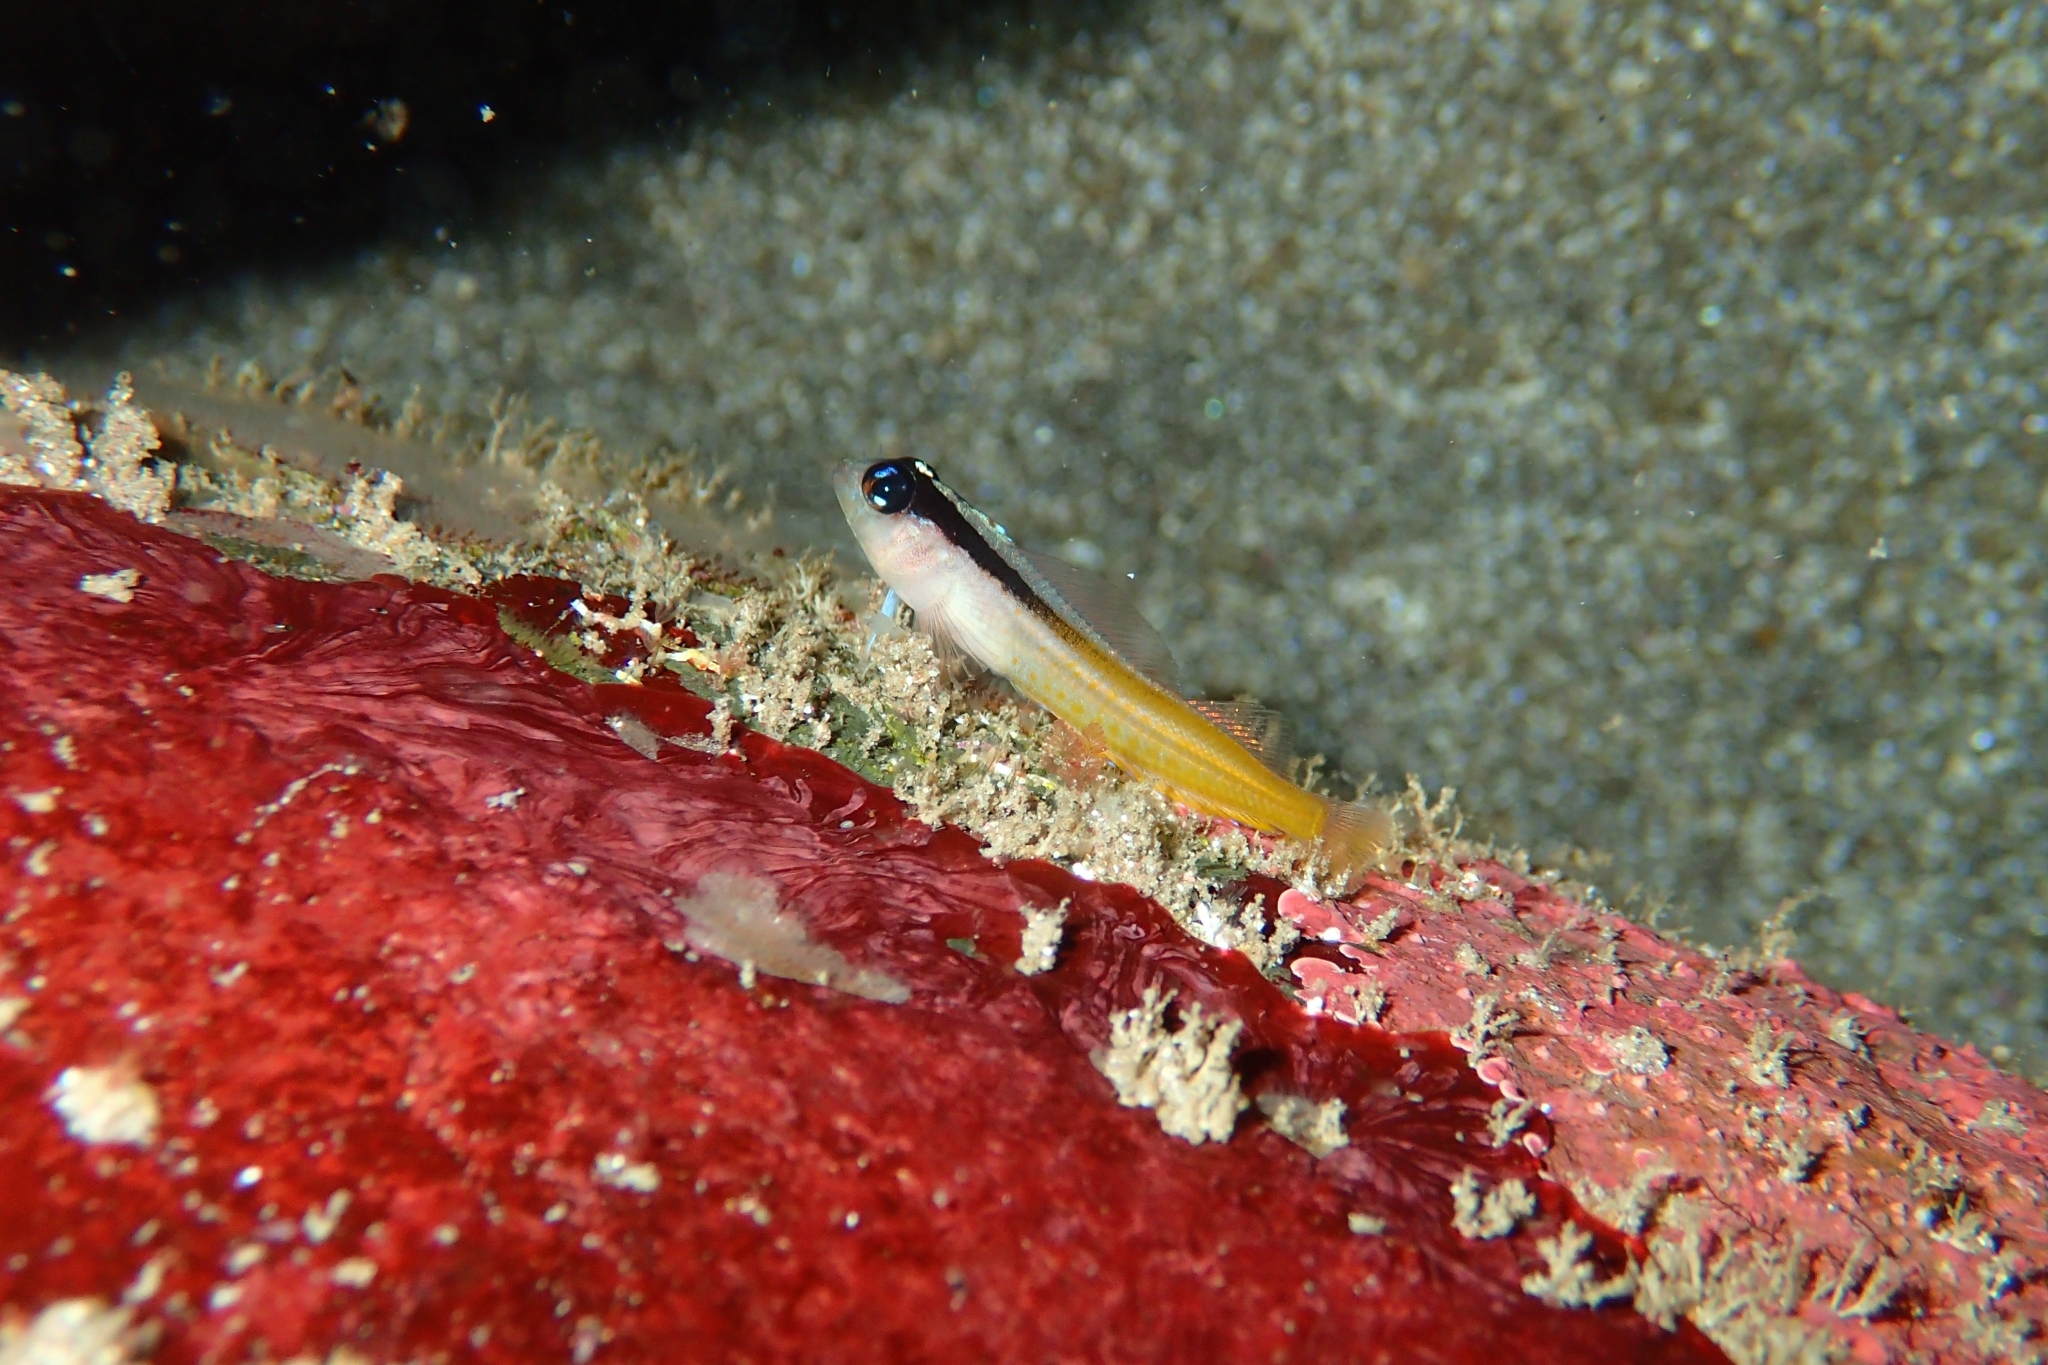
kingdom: Animalia
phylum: Chordata
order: Perciformes
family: Tripterygiidae
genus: Forsterygion
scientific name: Forsterygion flavonigrum
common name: Yellow-and-black triplefin
